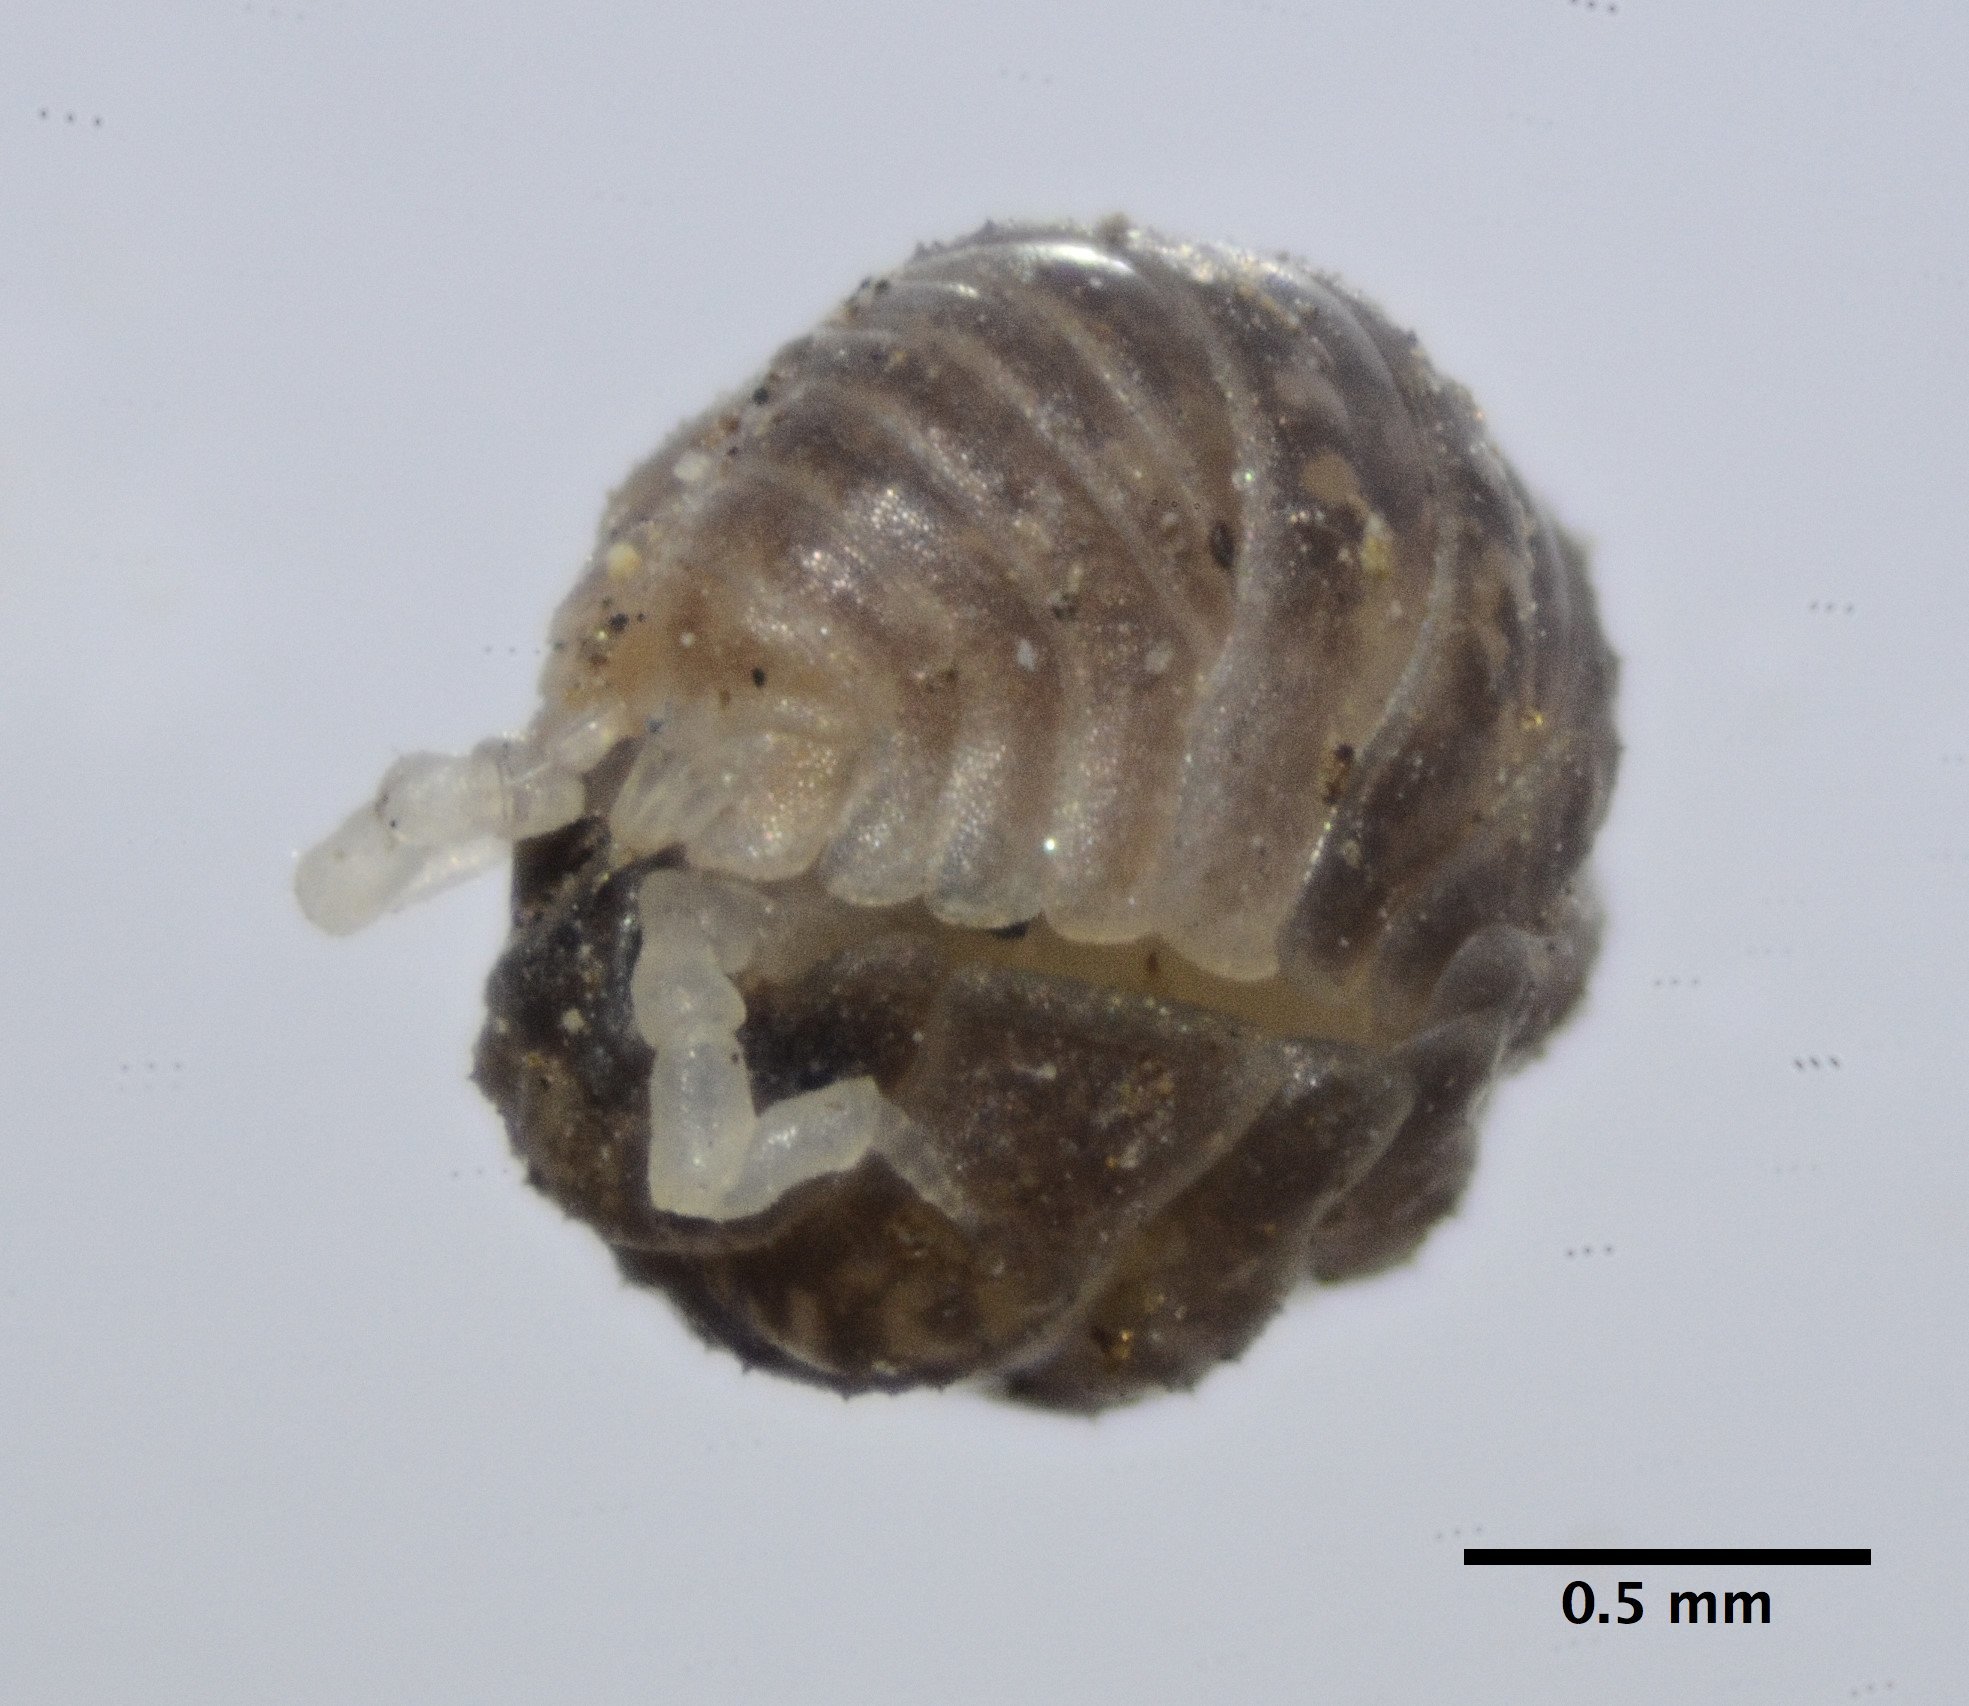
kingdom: Animalia
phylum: Arthropoda
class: Malacostraca
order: Isopoda
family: Detonidae
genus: Armadilloniscus
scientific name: Armadilloniscus lindahli
